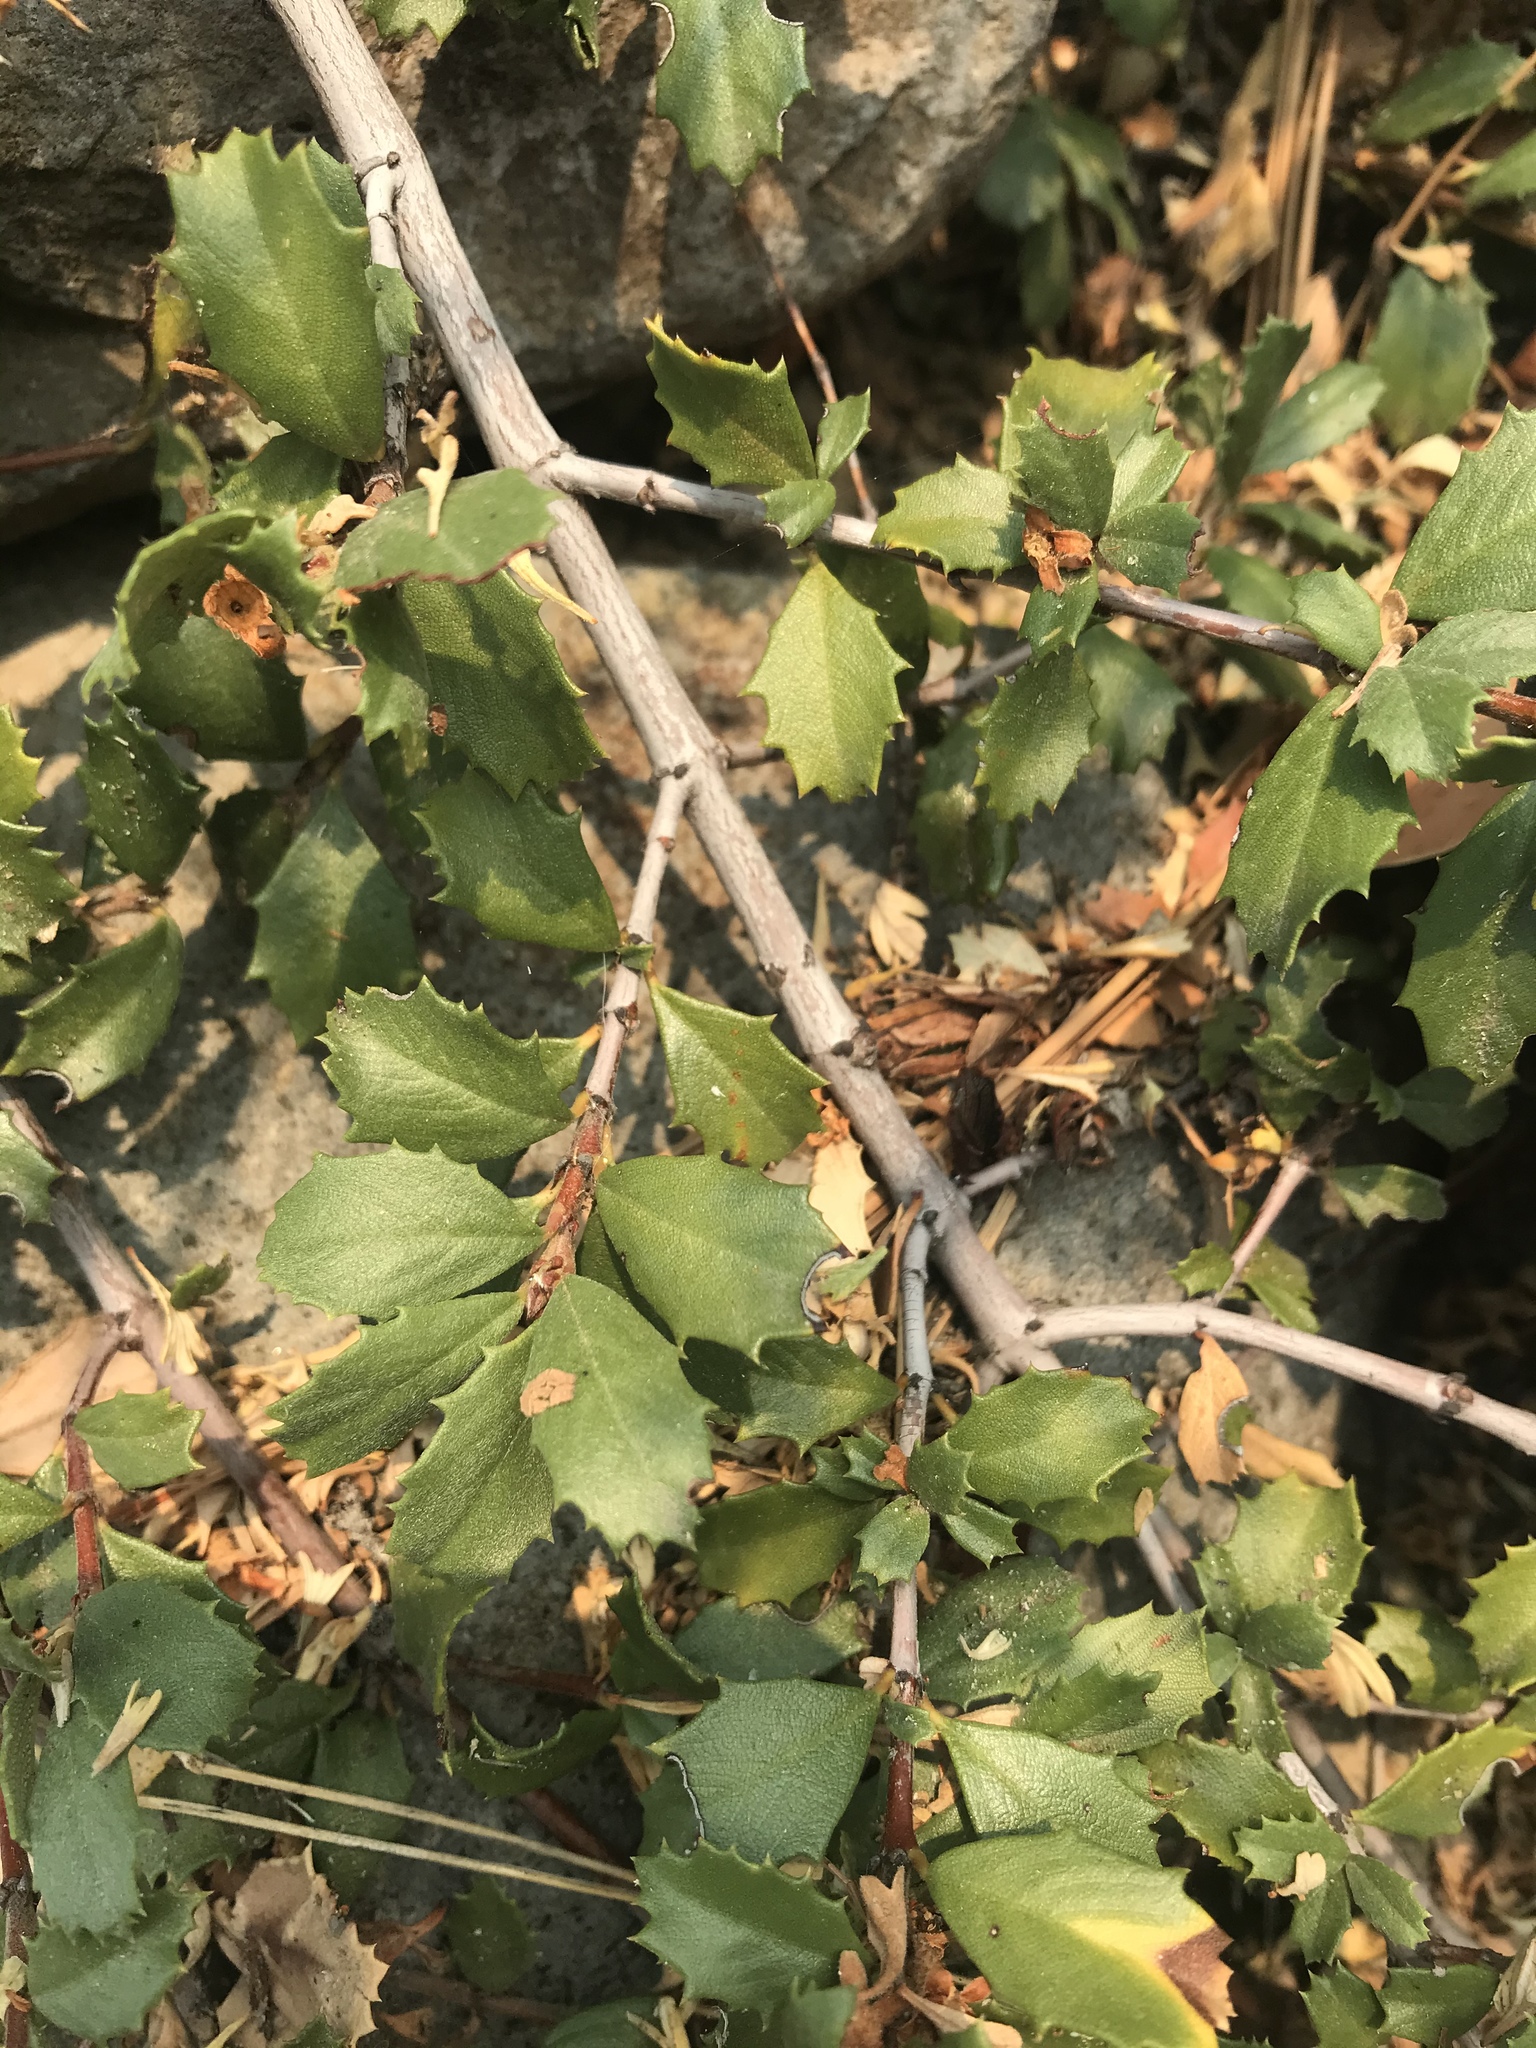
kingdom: Plantae
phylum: Tracheophyta
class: Magnoliopsida
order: Rosales
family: Rhamnaceae
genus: Ceanothus
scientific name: Ceanothus prostratus
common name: Mahala-mat
